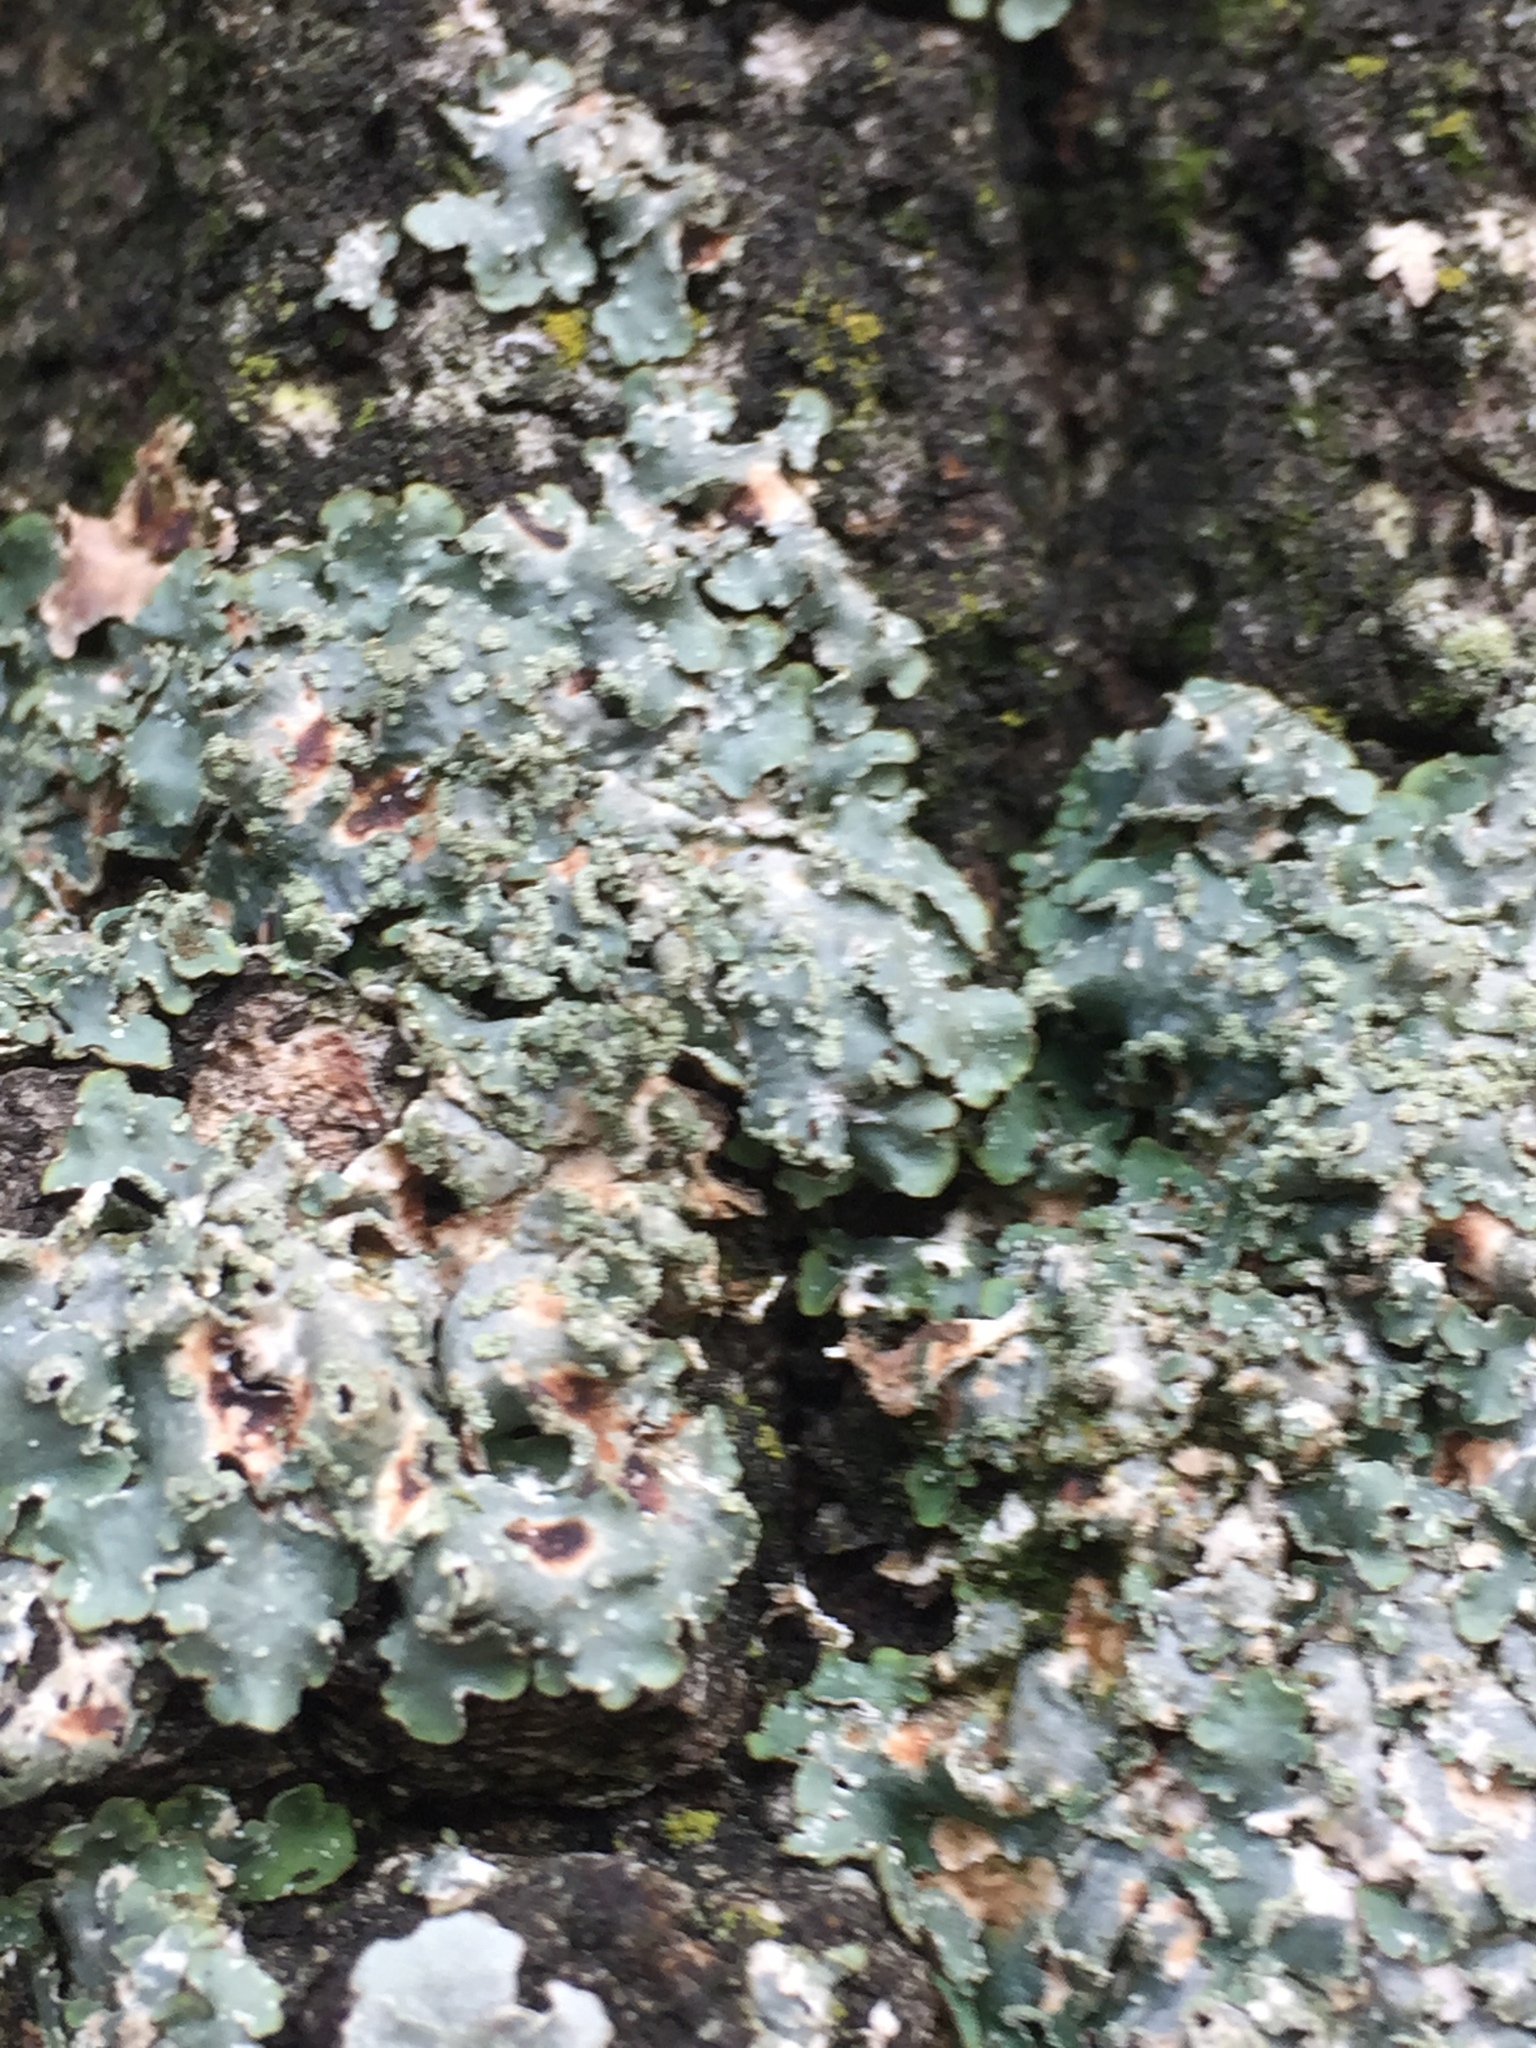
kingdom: Fungi
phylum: Ascomycota
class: Lecanoromycetes
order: Lecanorales
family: Parmeliaceae
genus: Punctelia
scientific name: Punctelia subrudecta
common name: Powdered speckled shield lichen
